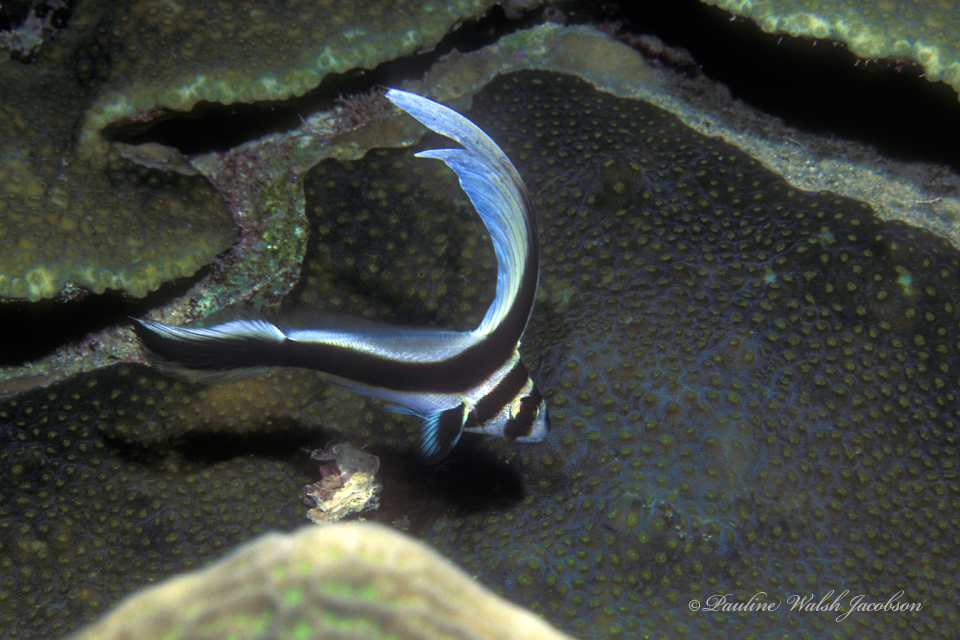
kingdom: Animalia
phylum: Chordata
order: Perciformes
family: Sciaenidae
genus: Equetus
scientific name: Equetus punctatus
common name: Spotted drum
